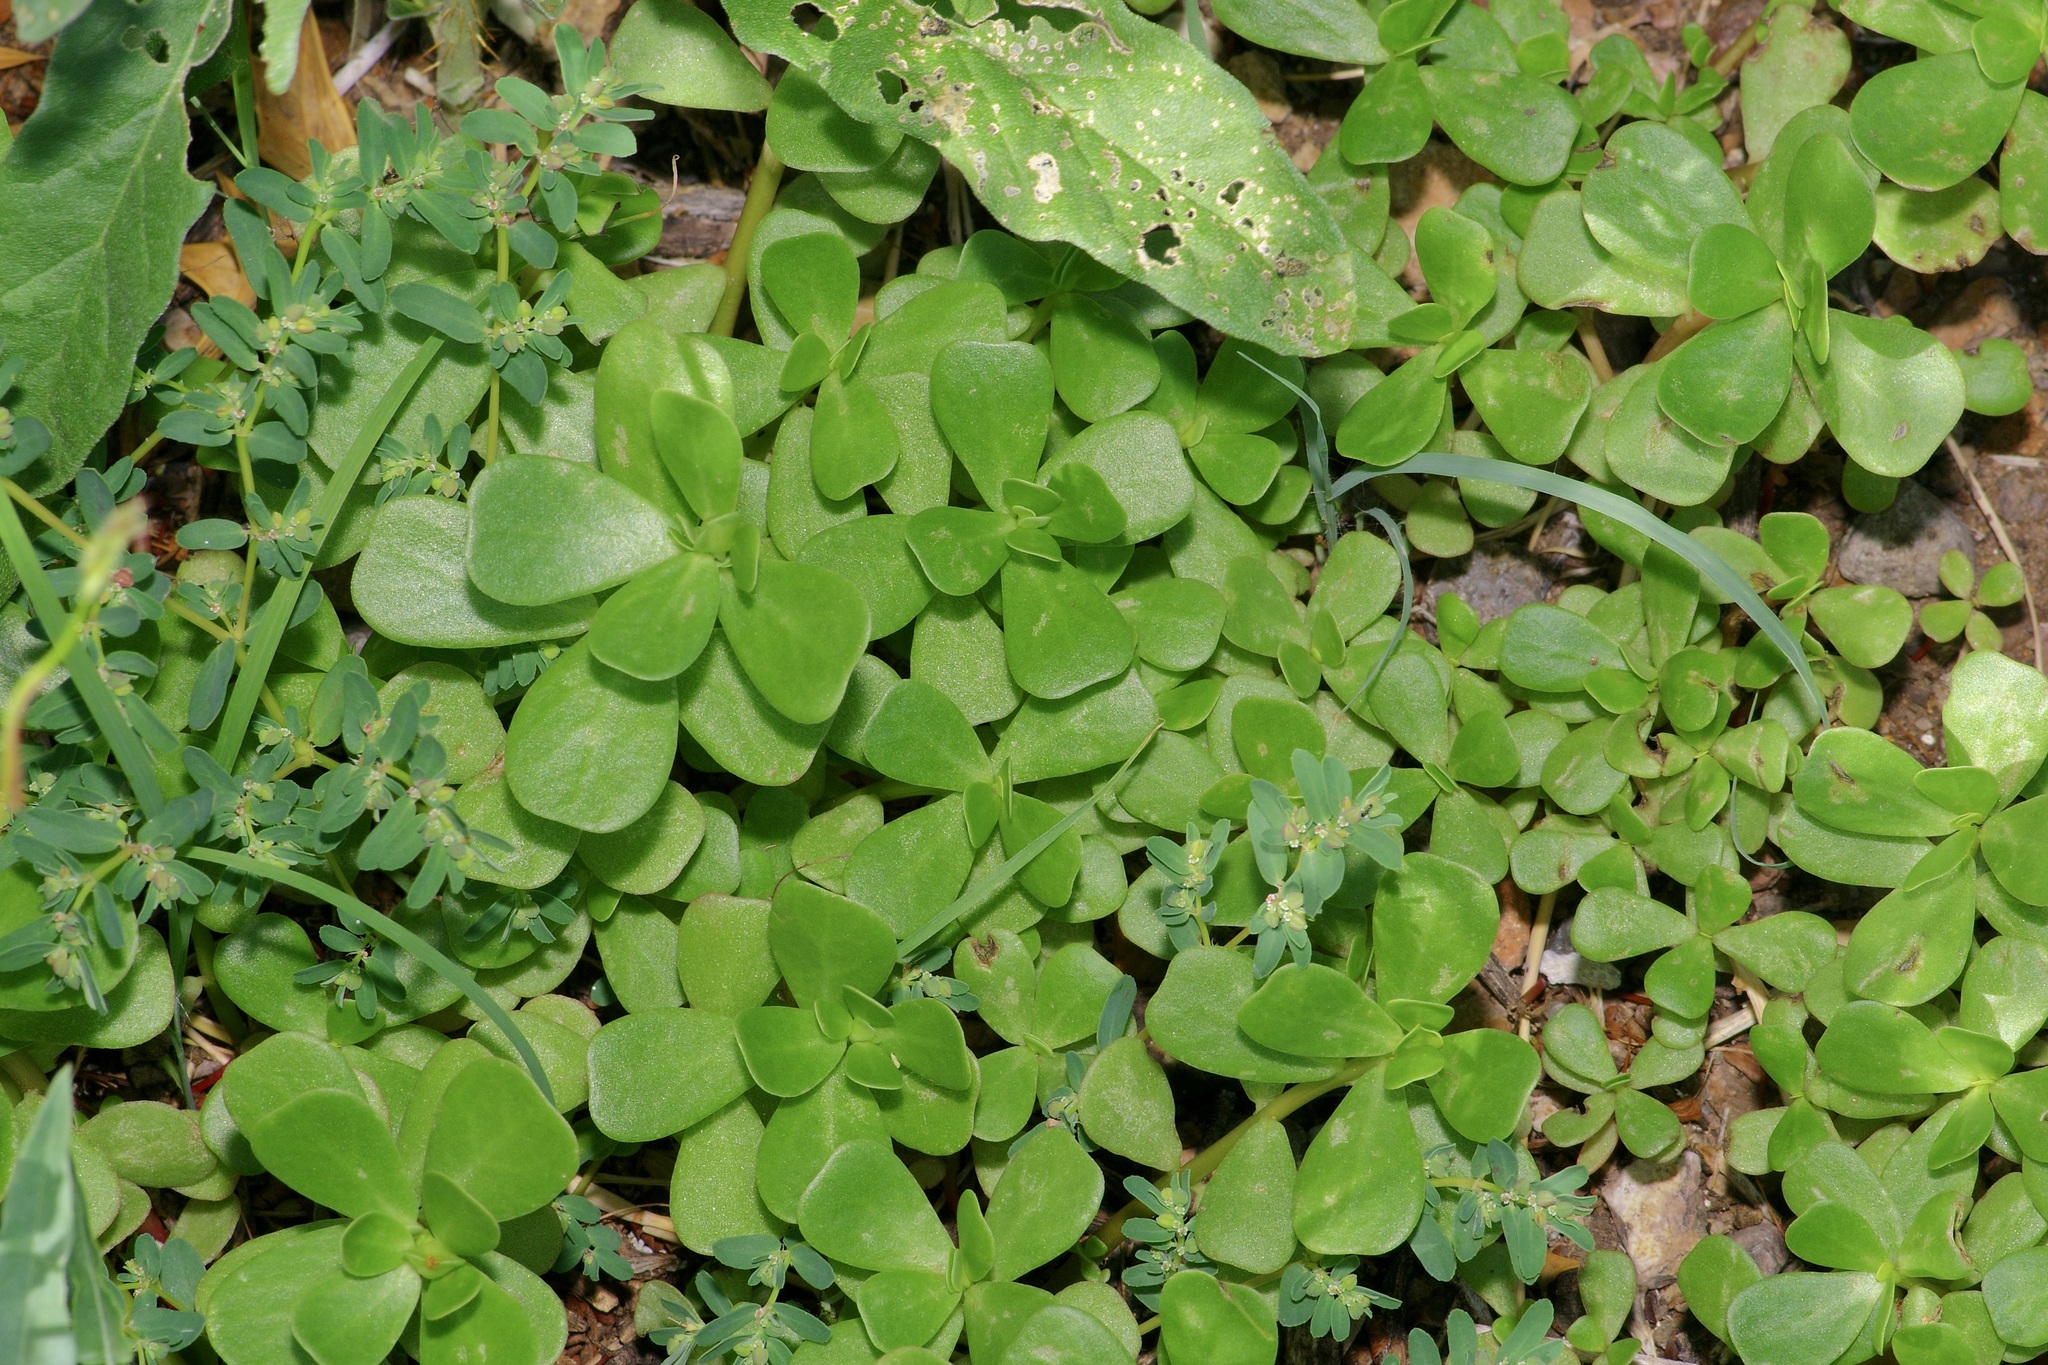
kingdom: Plantae
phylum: Tracheophyta
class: Magnoliopsida
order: Caryophyllales
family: Portulacaceae
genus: Portulaca
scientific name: Portulaca oleracea
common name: Common purslane
